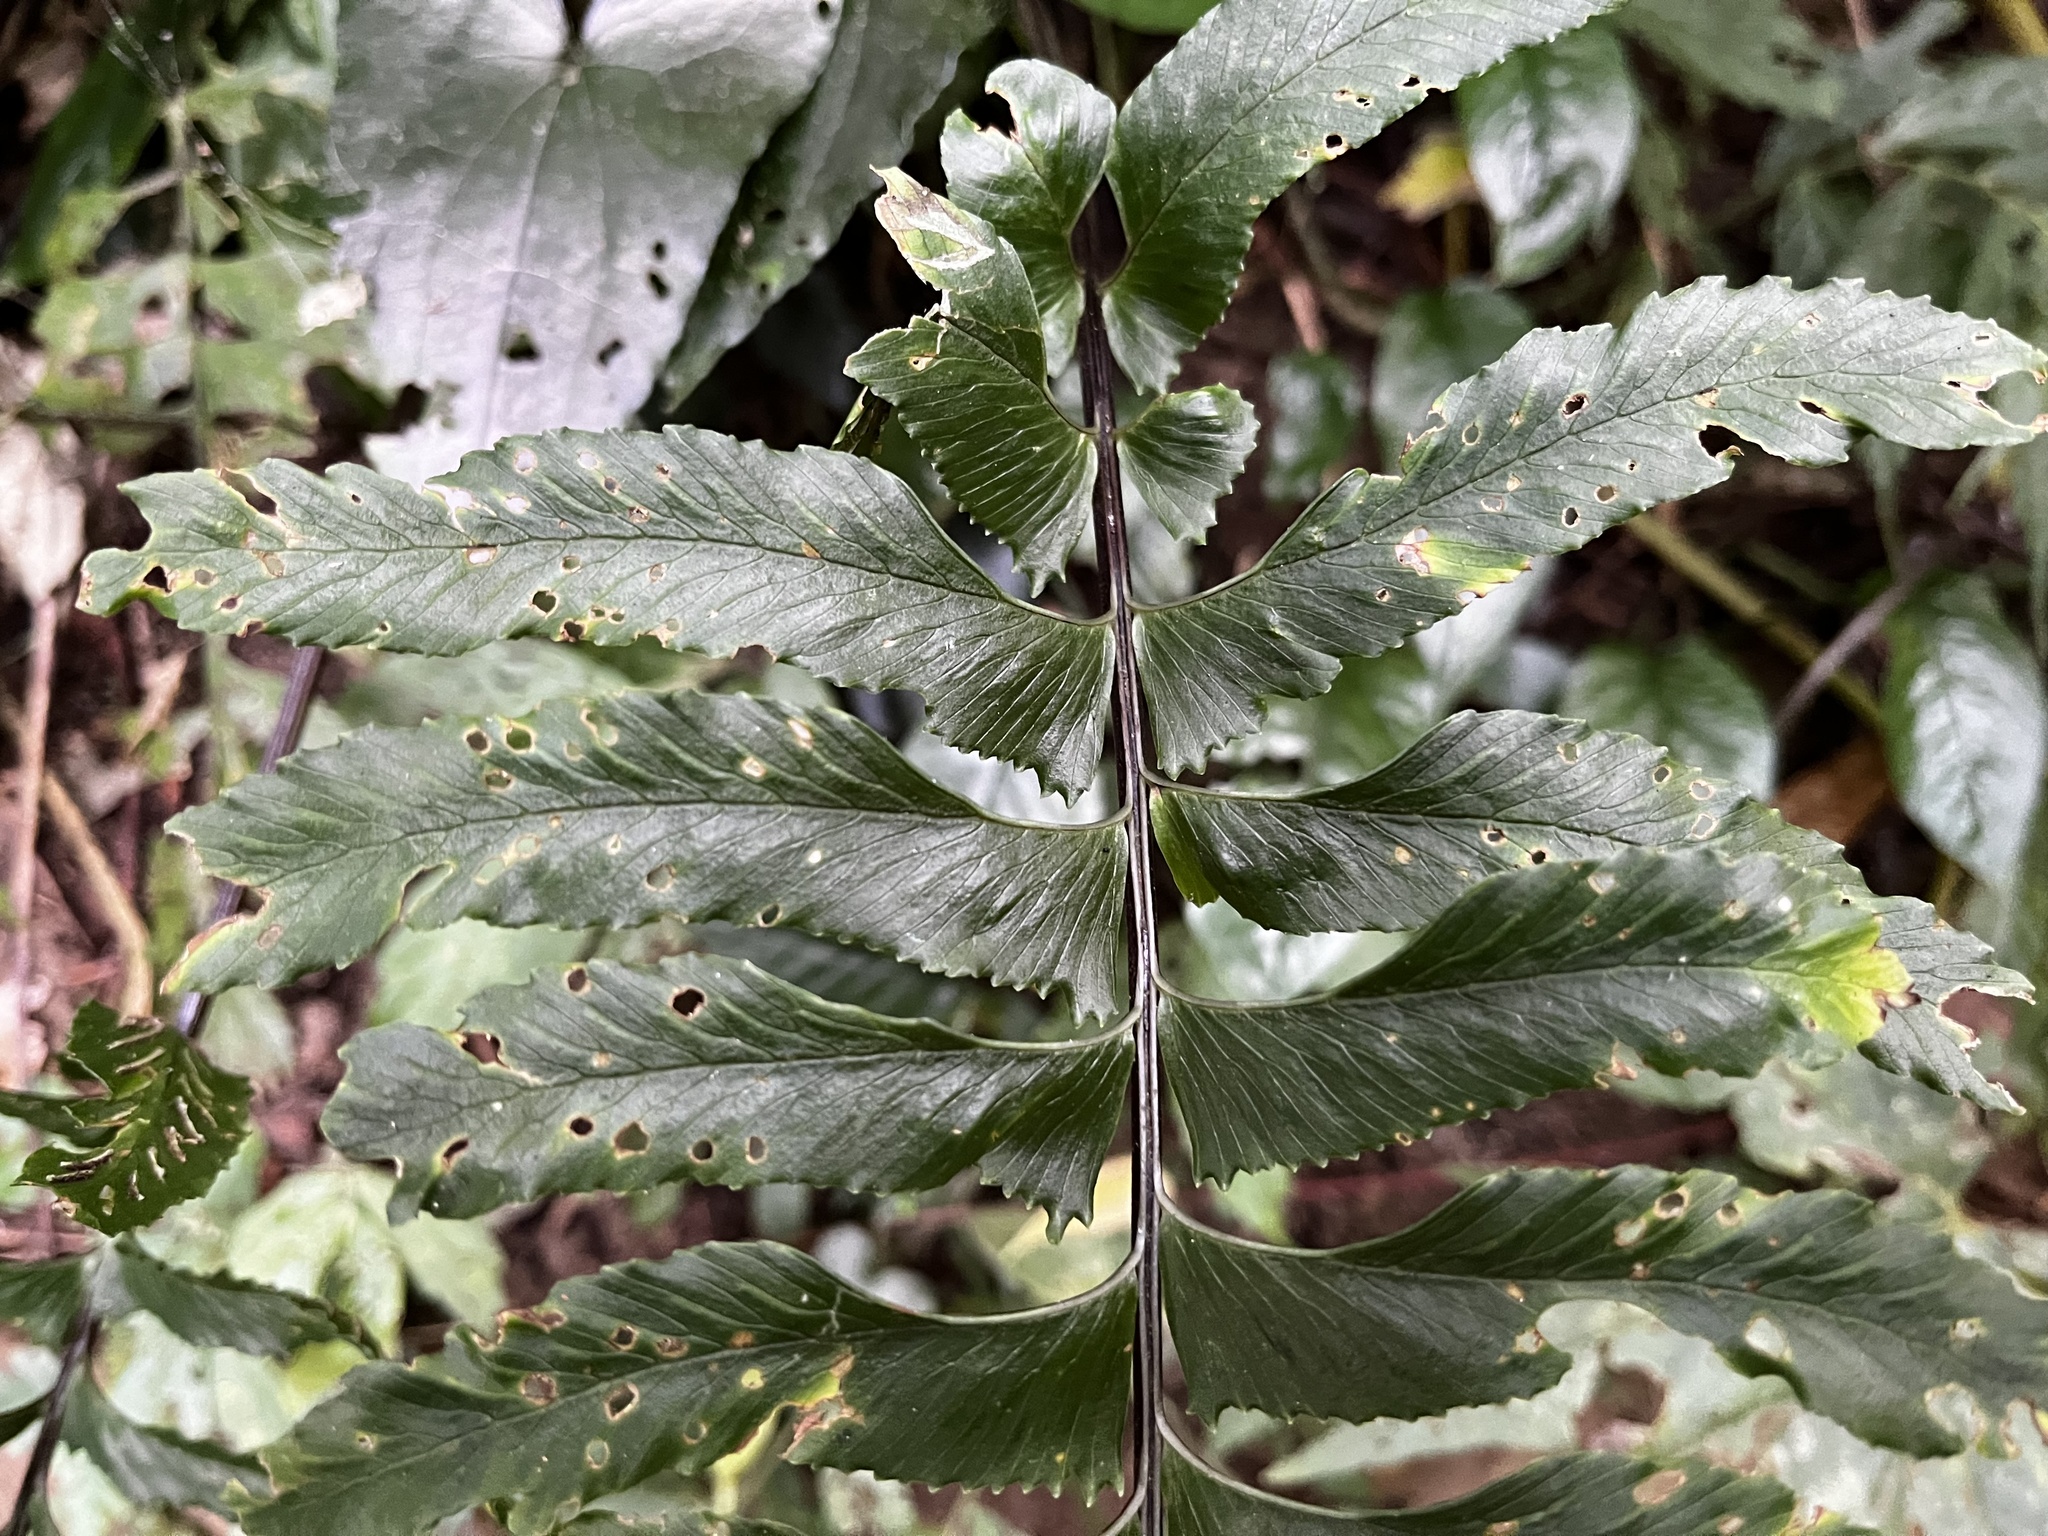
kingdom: Plantae
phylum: Tracheophyta
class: Polypodiopsida
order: Polypodiales
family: Aspleniaceae
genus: Hymenasplenium
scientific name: Hymenasplenium excisum
